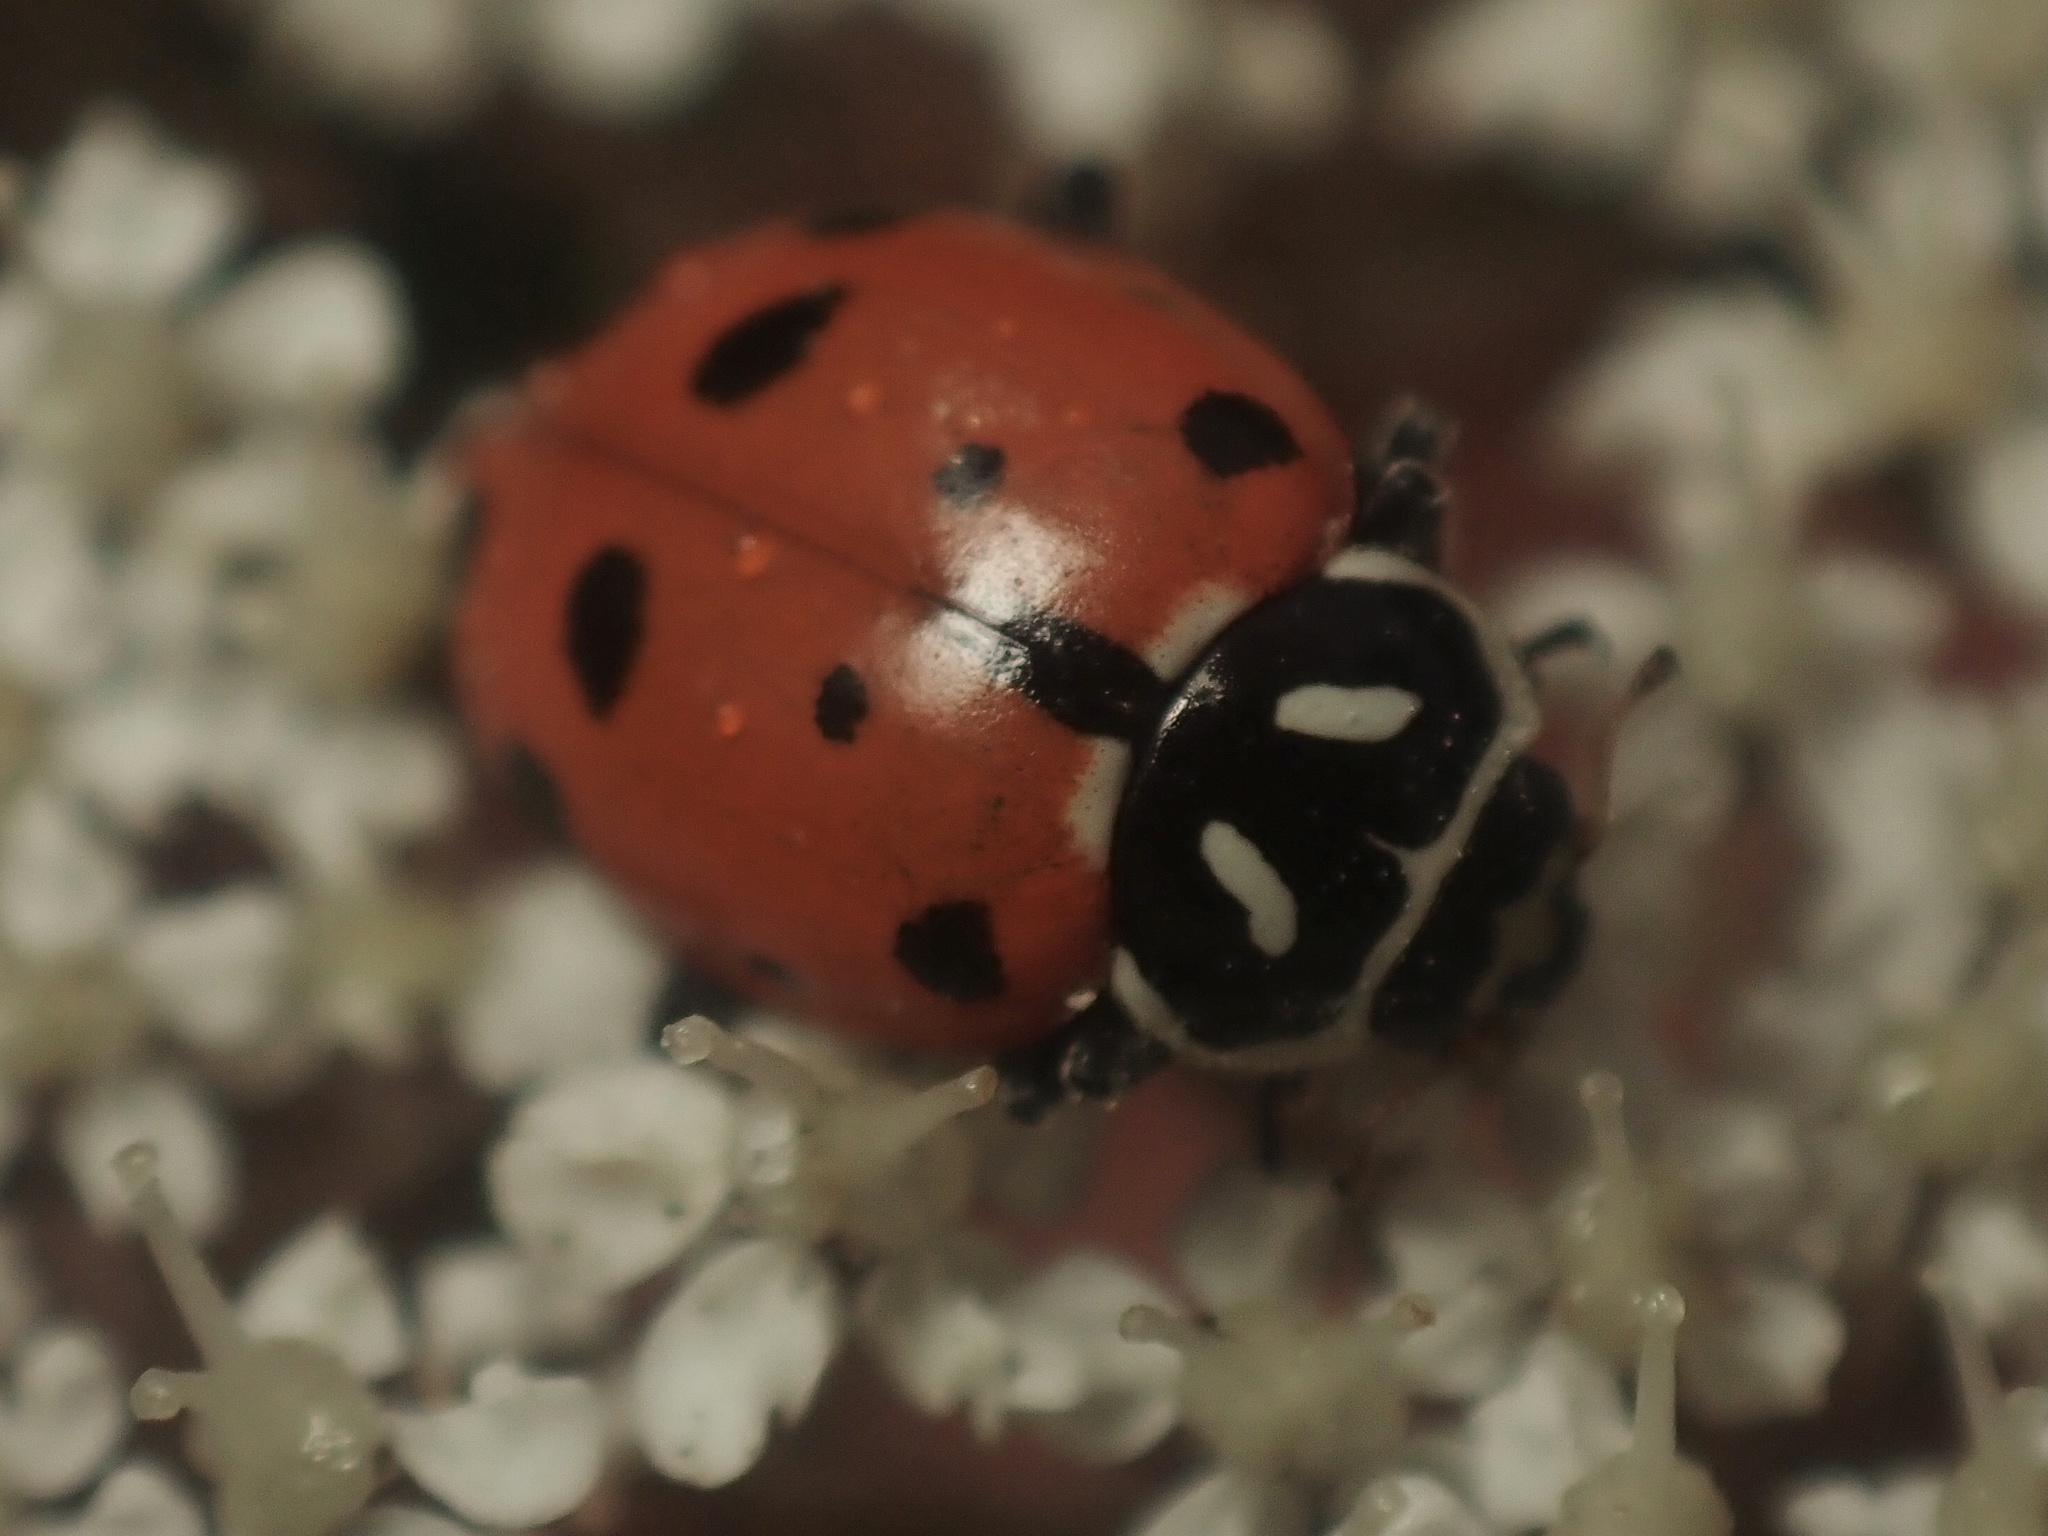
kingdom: Animalia
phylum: Arthropoda
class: Insecta
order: Coleoptera
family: Coccinellidae
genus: Hippodamia
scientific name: Hippodamia convergens
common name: Convergent lady beetle
